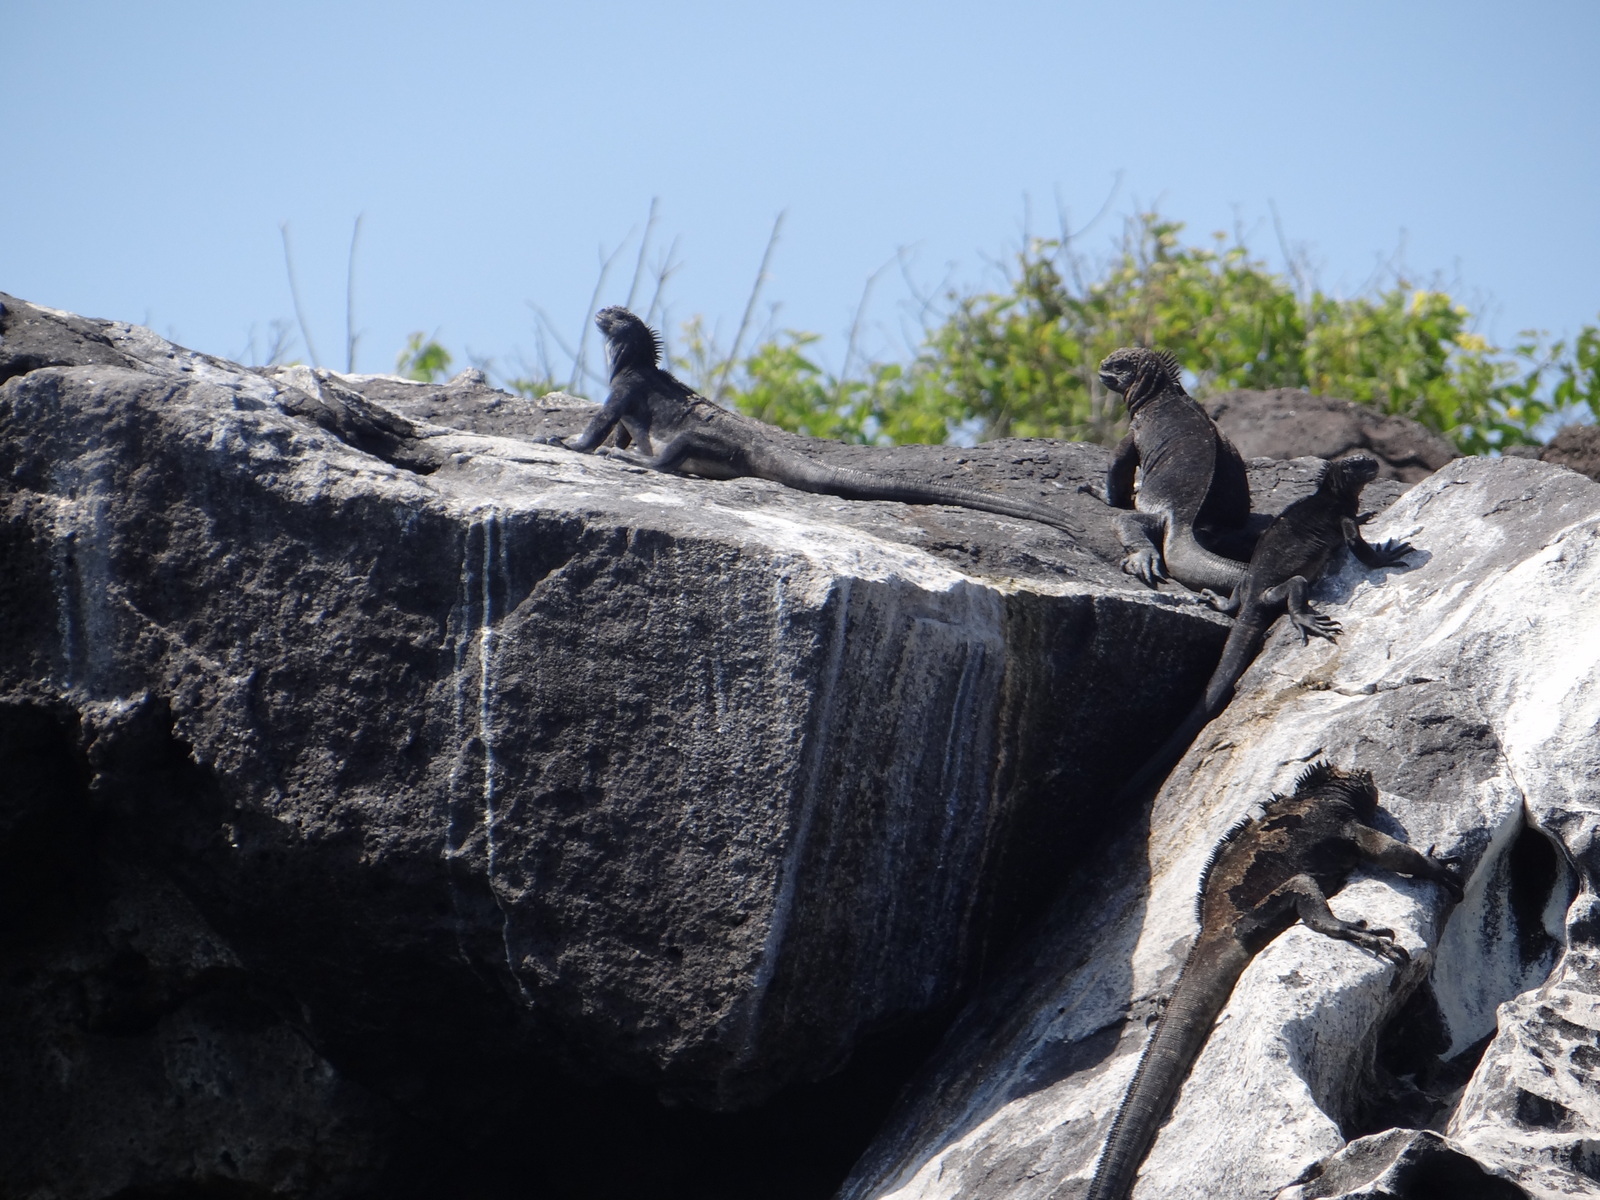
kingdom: Animalia
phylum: Chordata
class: Squamata
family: Iguanidae
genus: Amblyrhynchus
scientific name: Amblyrhynchus cristatus
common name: Marine iguana
